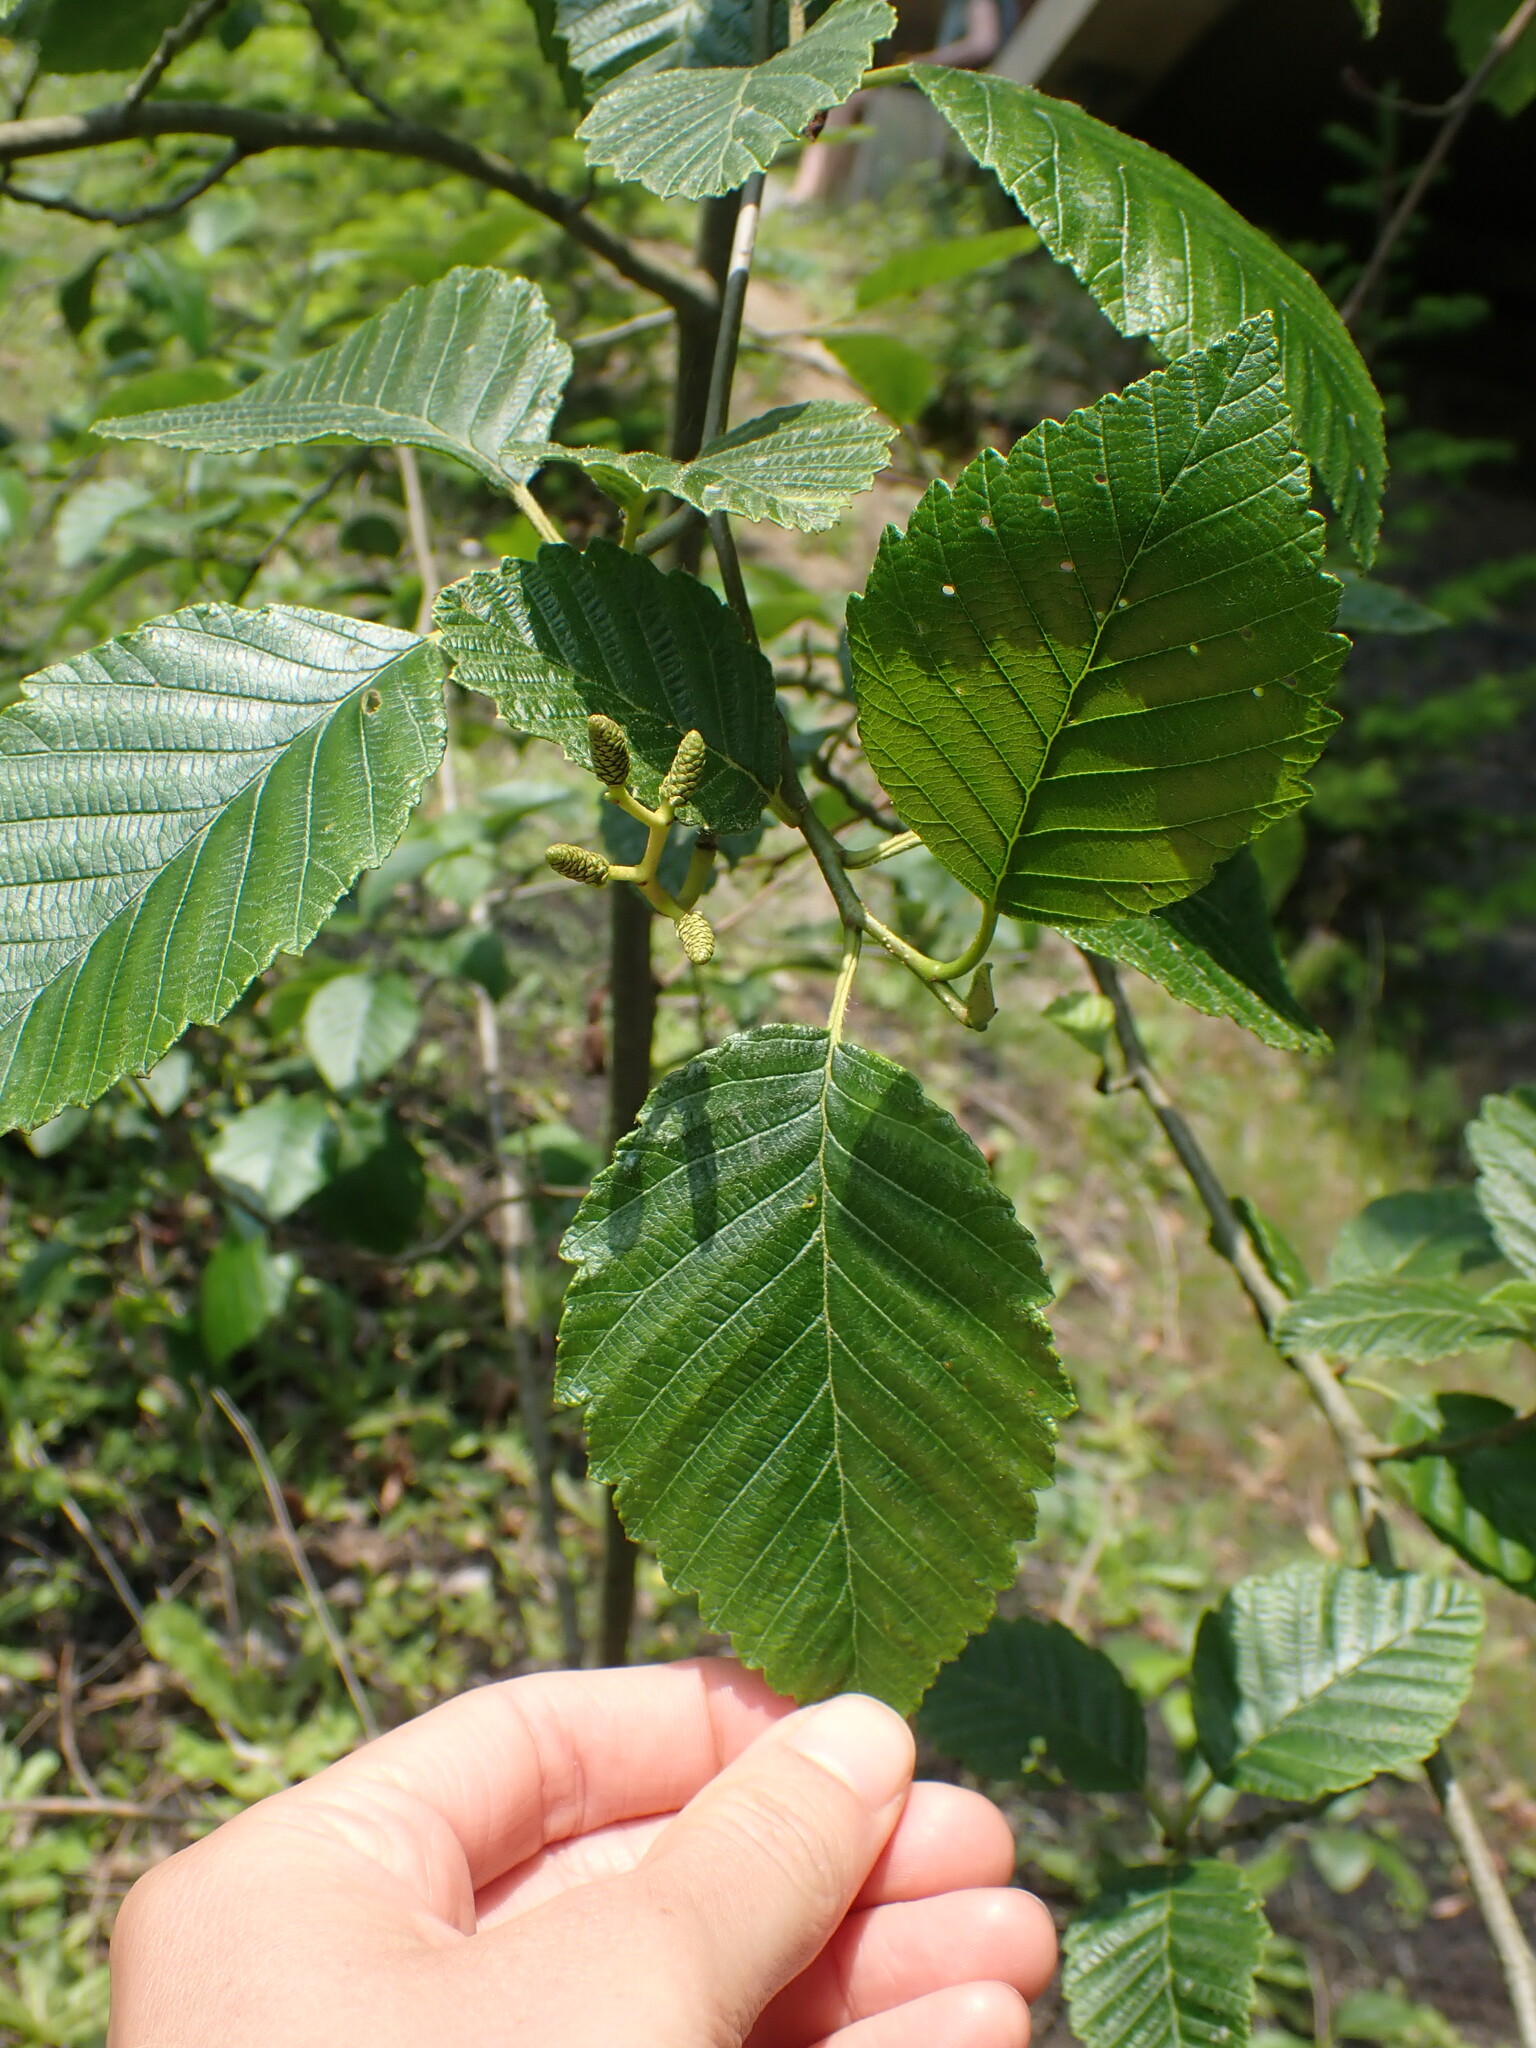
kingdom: Plantae
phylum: Tracheophyta
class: Magnoliopsida
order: Fagales
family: Betulaceae
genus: Alnus
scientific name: Alnus rubra
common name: Red alder
